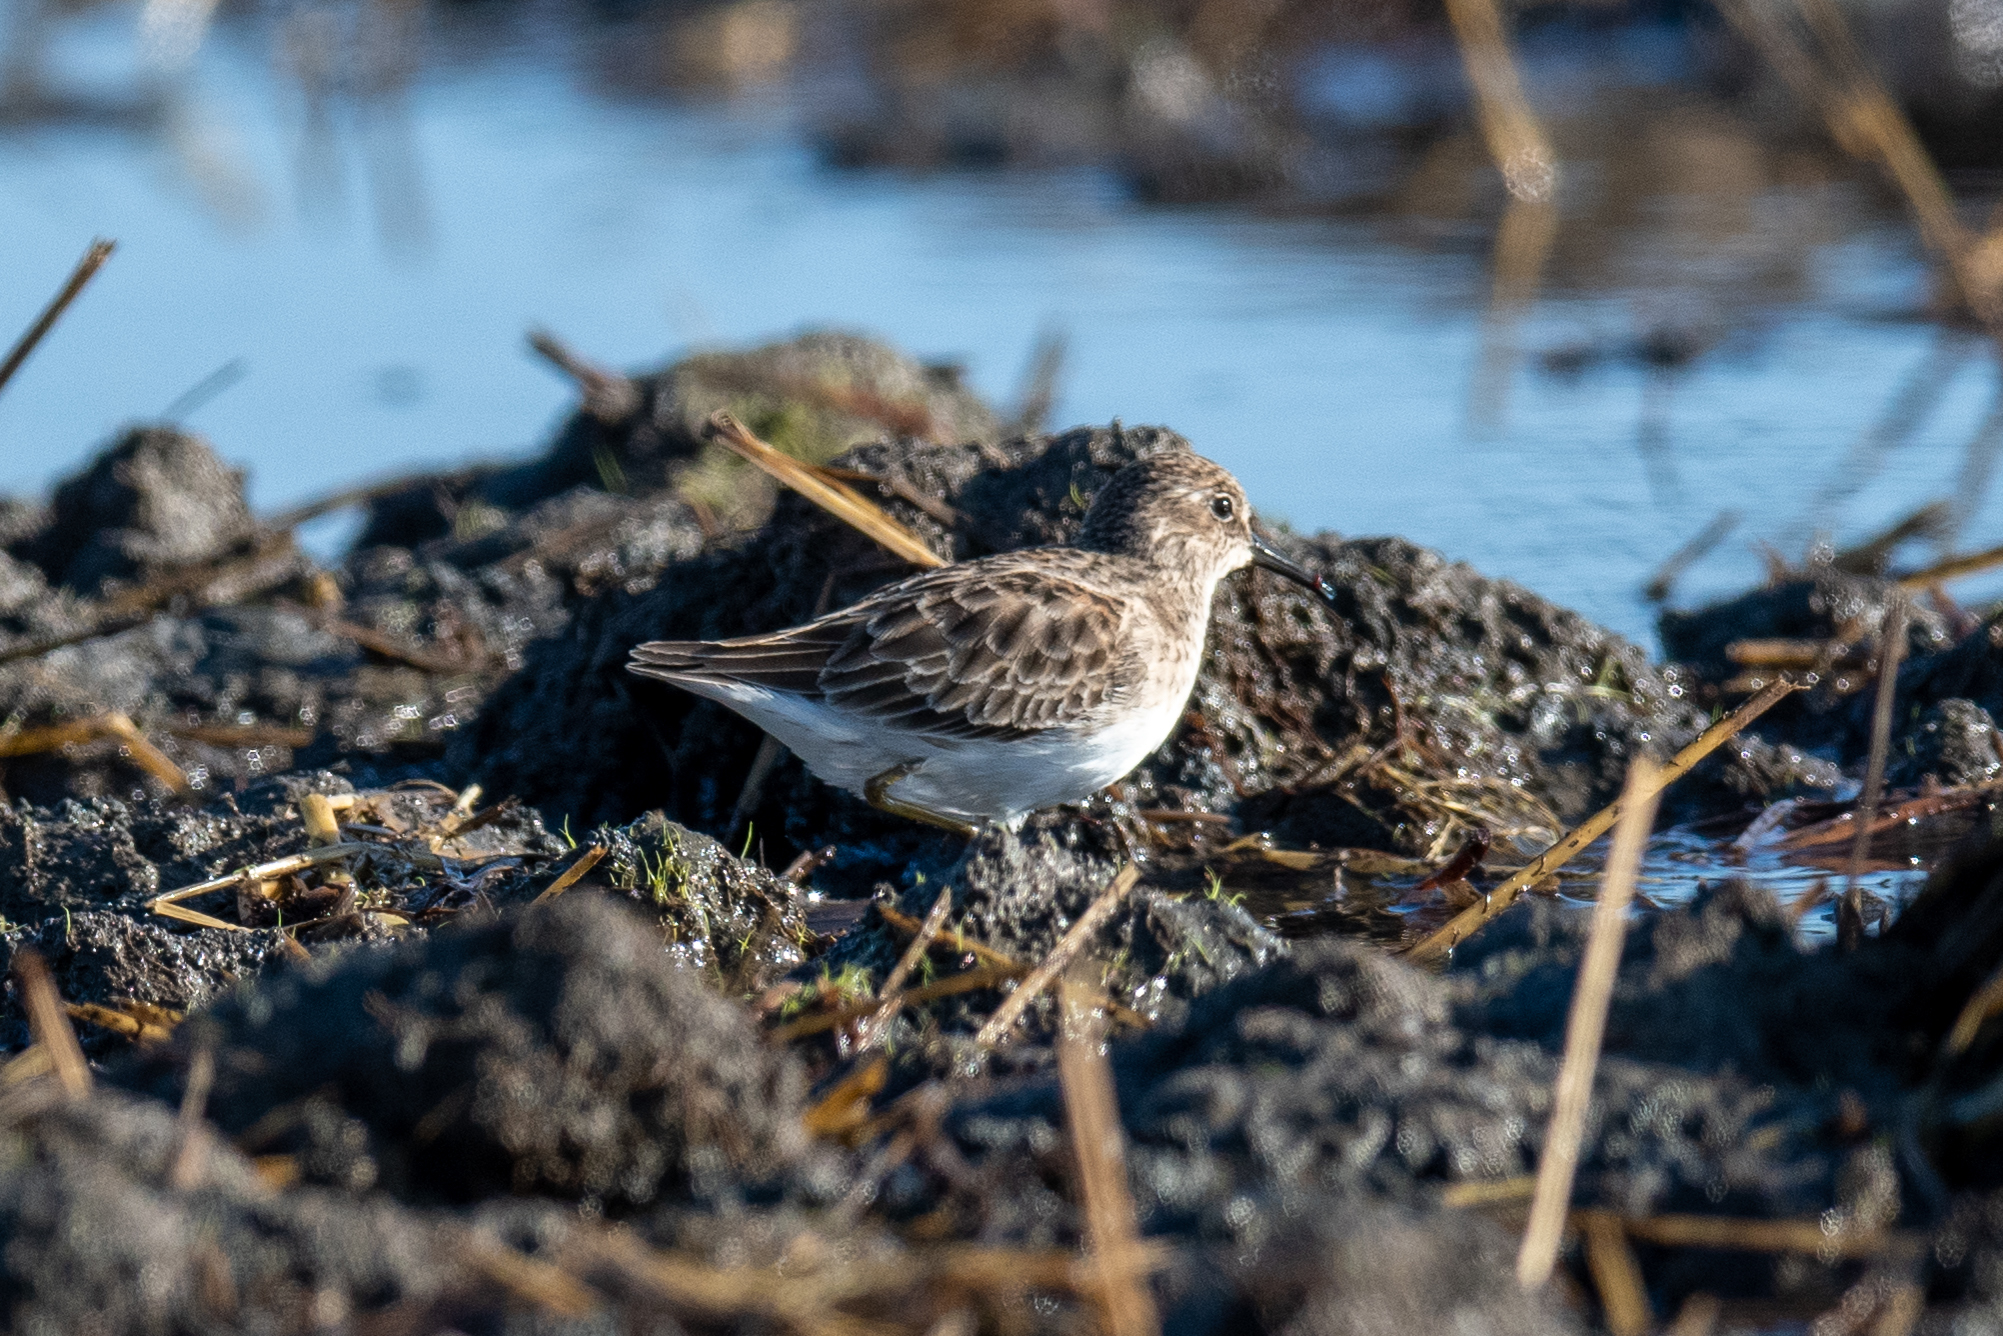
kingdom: Animalia
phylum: Chordata
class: Aves
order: Charadriiformes
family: Scolopacidae
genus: Calidris
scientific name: Calidris minutilla
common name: Least sandpiper
